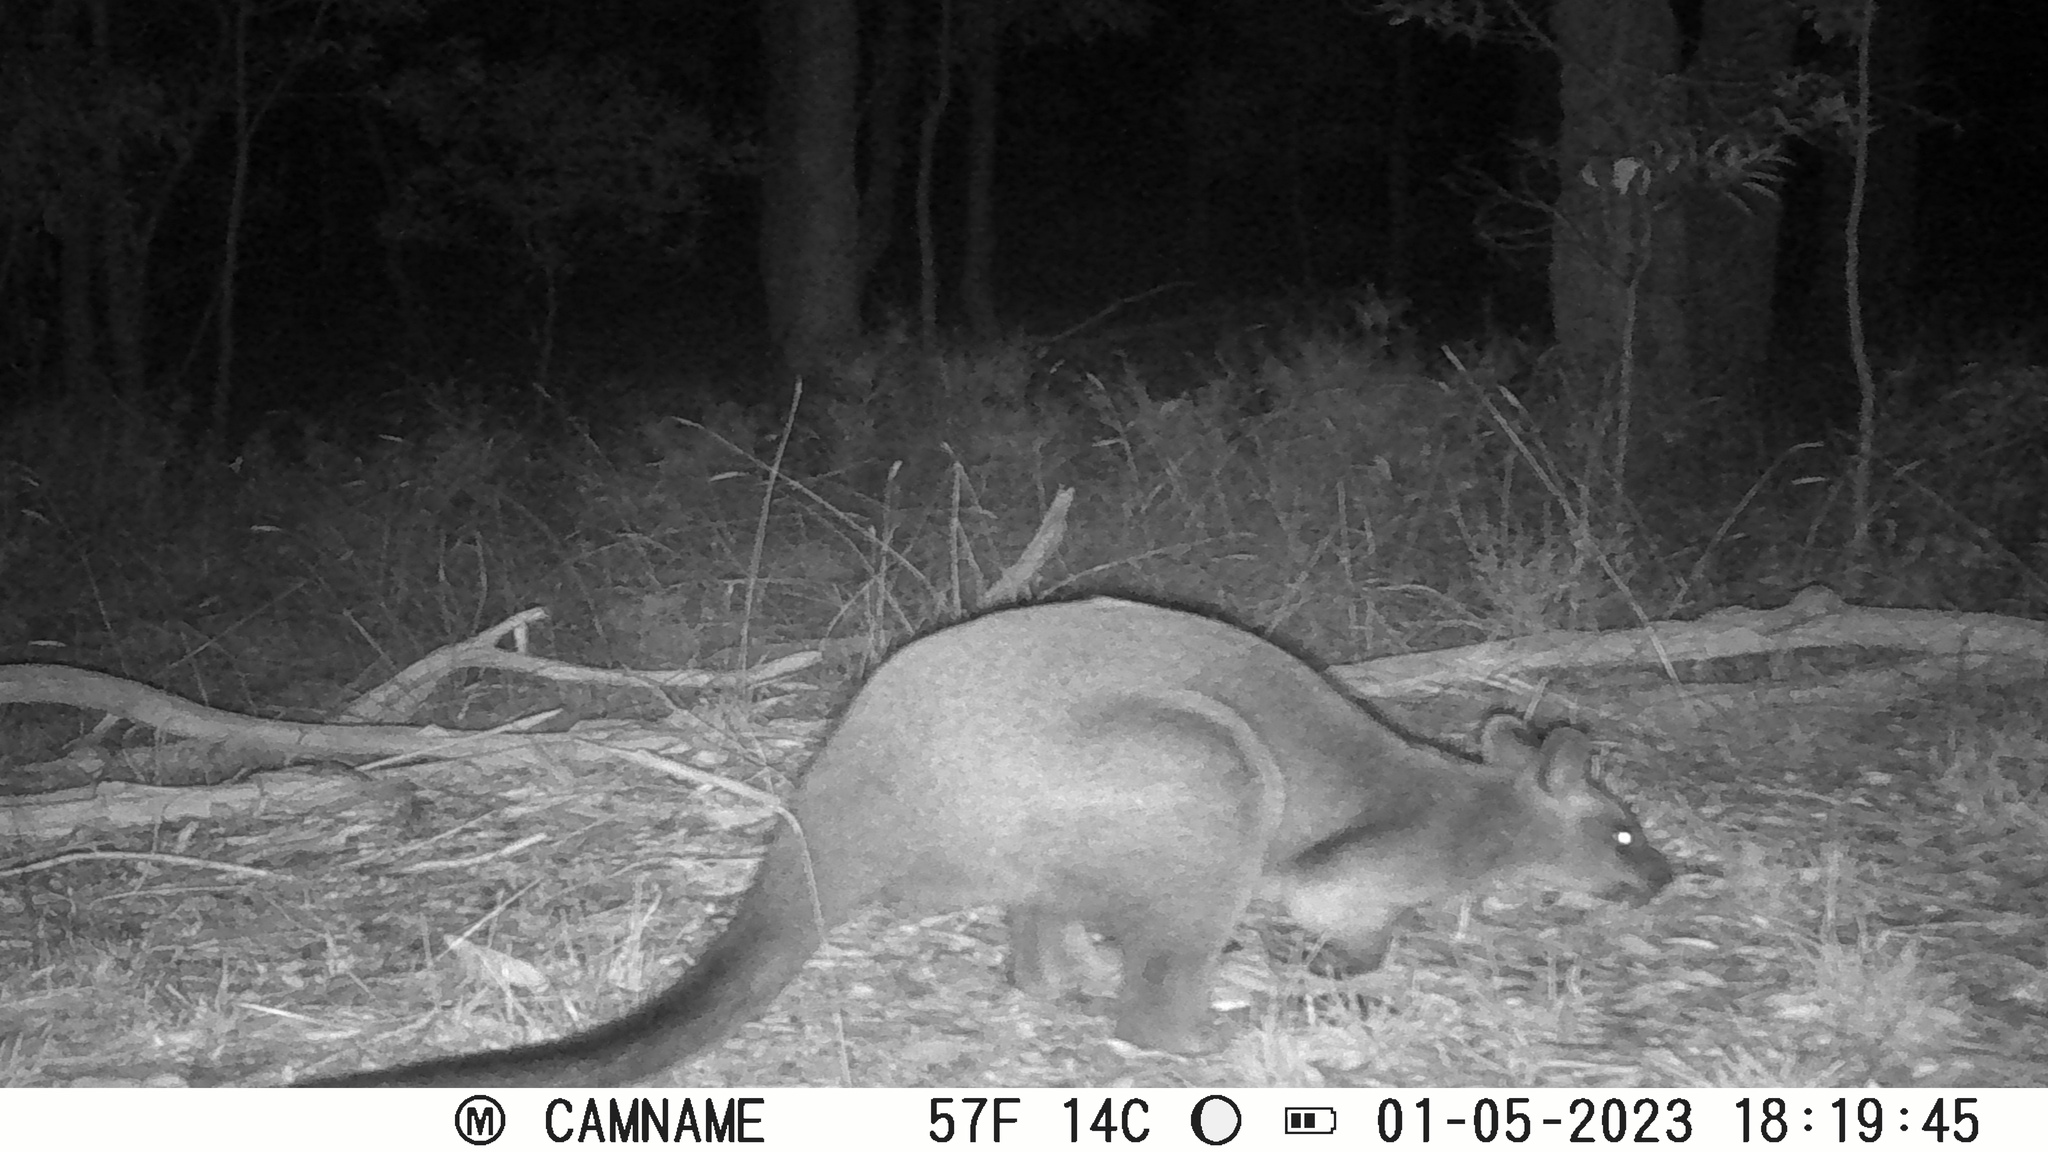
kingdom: Animalia
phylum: Chordata
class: Mammalia
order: Diprotodontia
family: Macropodidae
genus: Wallabia
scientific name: Wallabia bicolor
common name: Swamp wallaby
